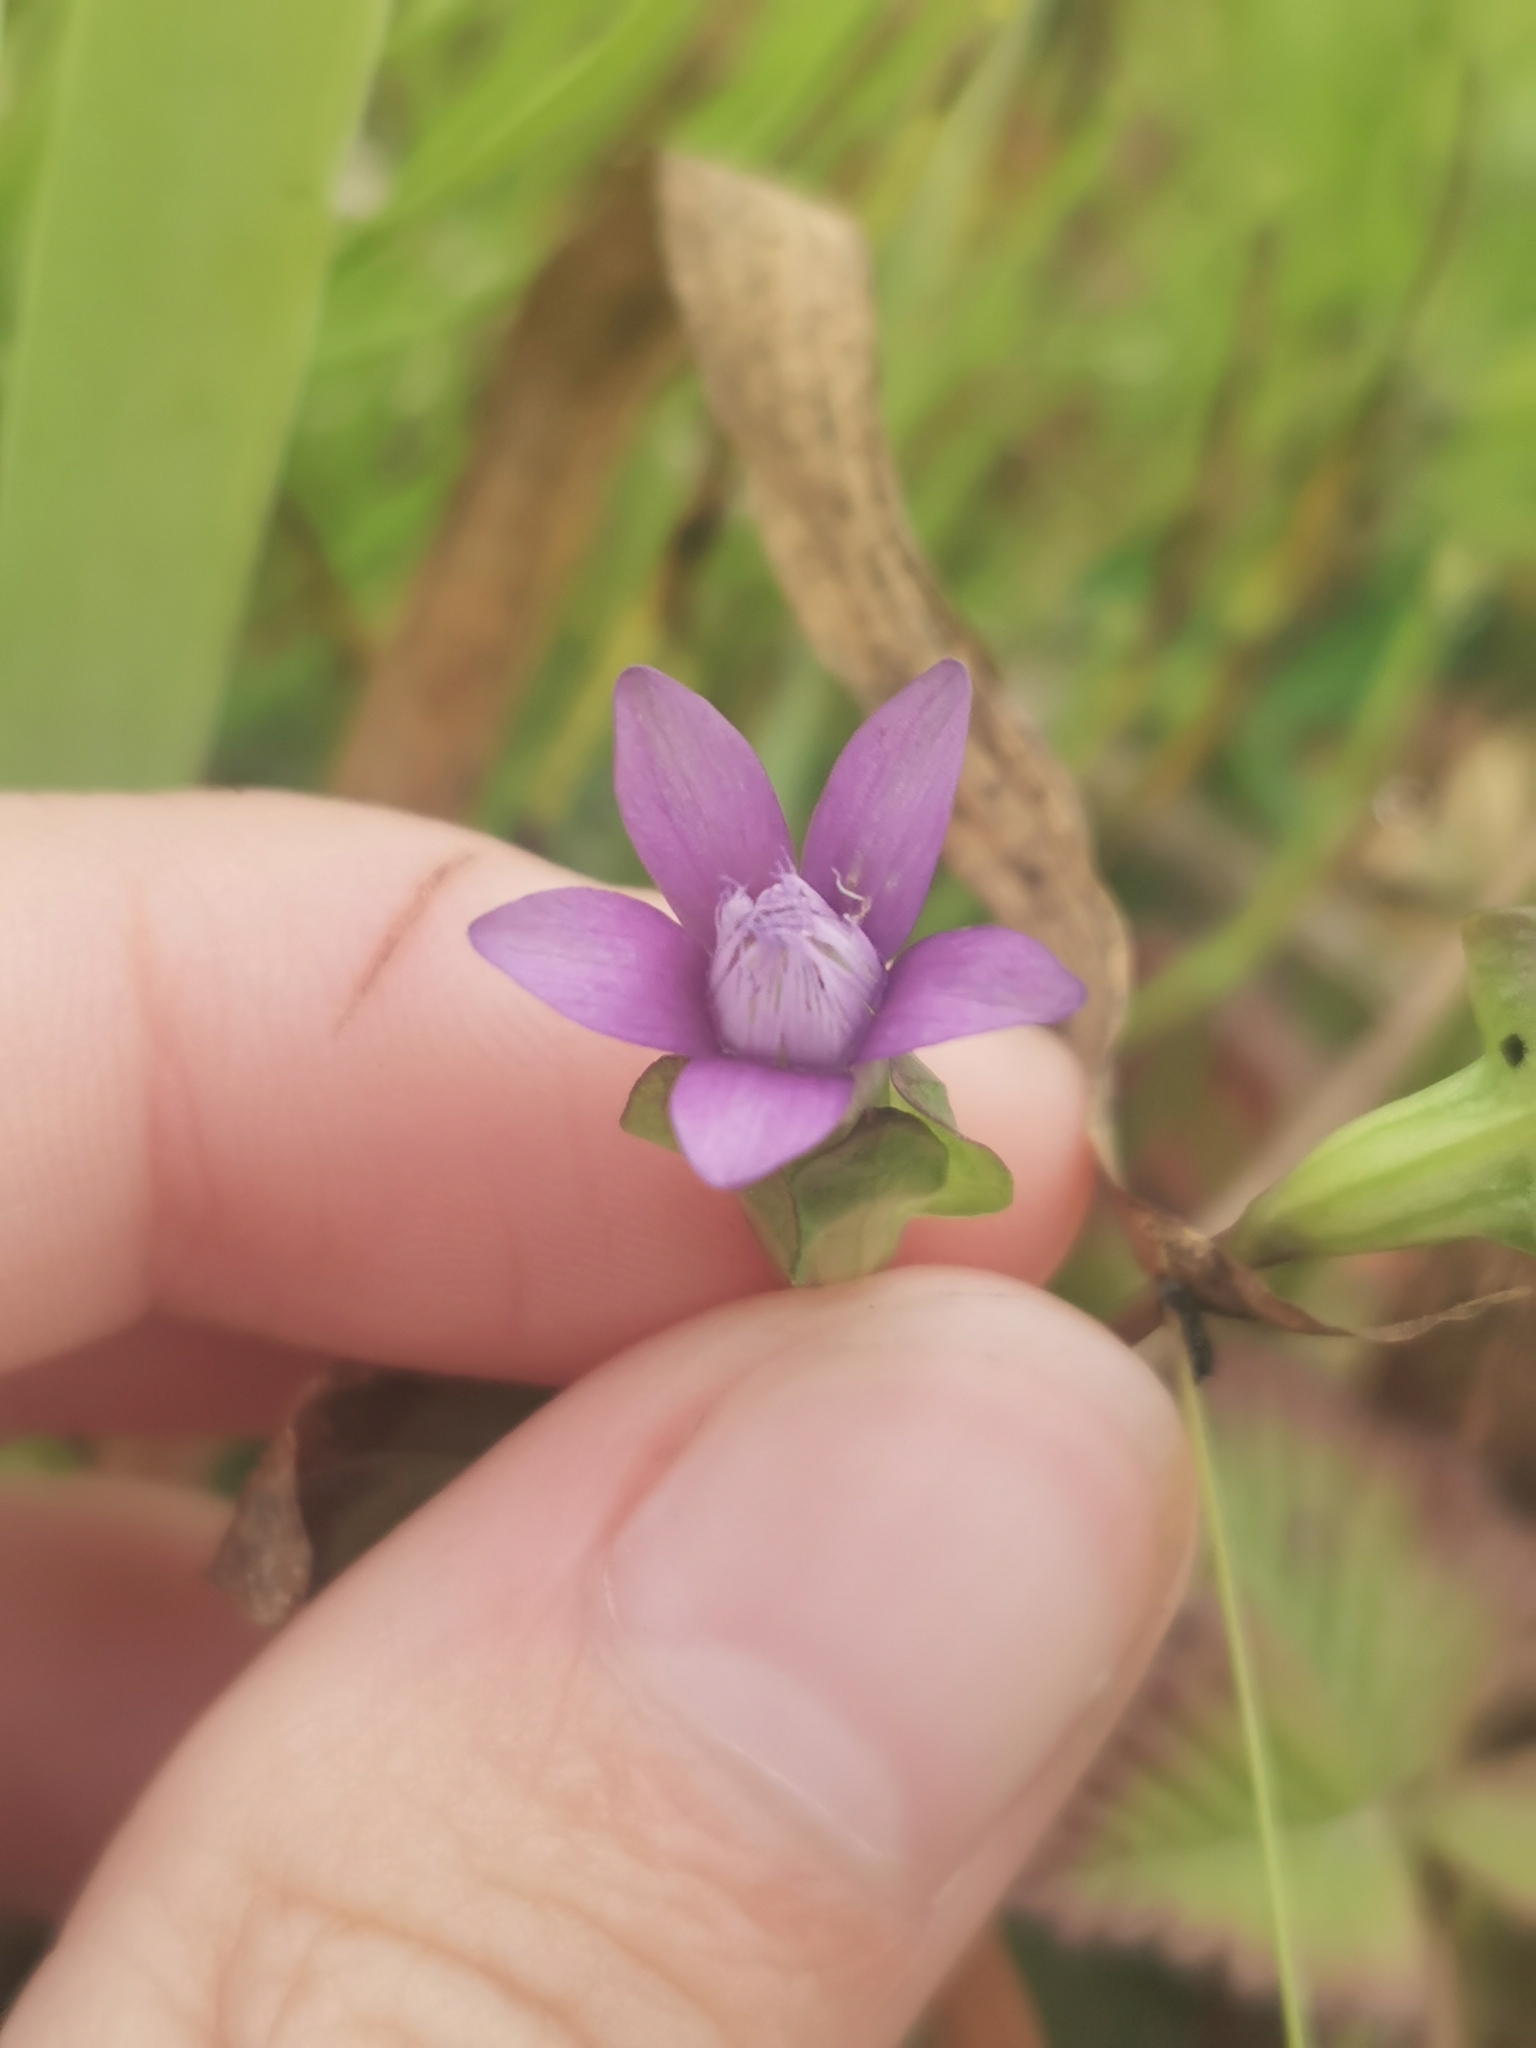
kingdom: Plantae
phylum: Tracheophyta
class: Magnoliopsida
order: Gentianales
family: Gentianaceae
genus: Gentianella
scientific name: Gentianella auriculata
